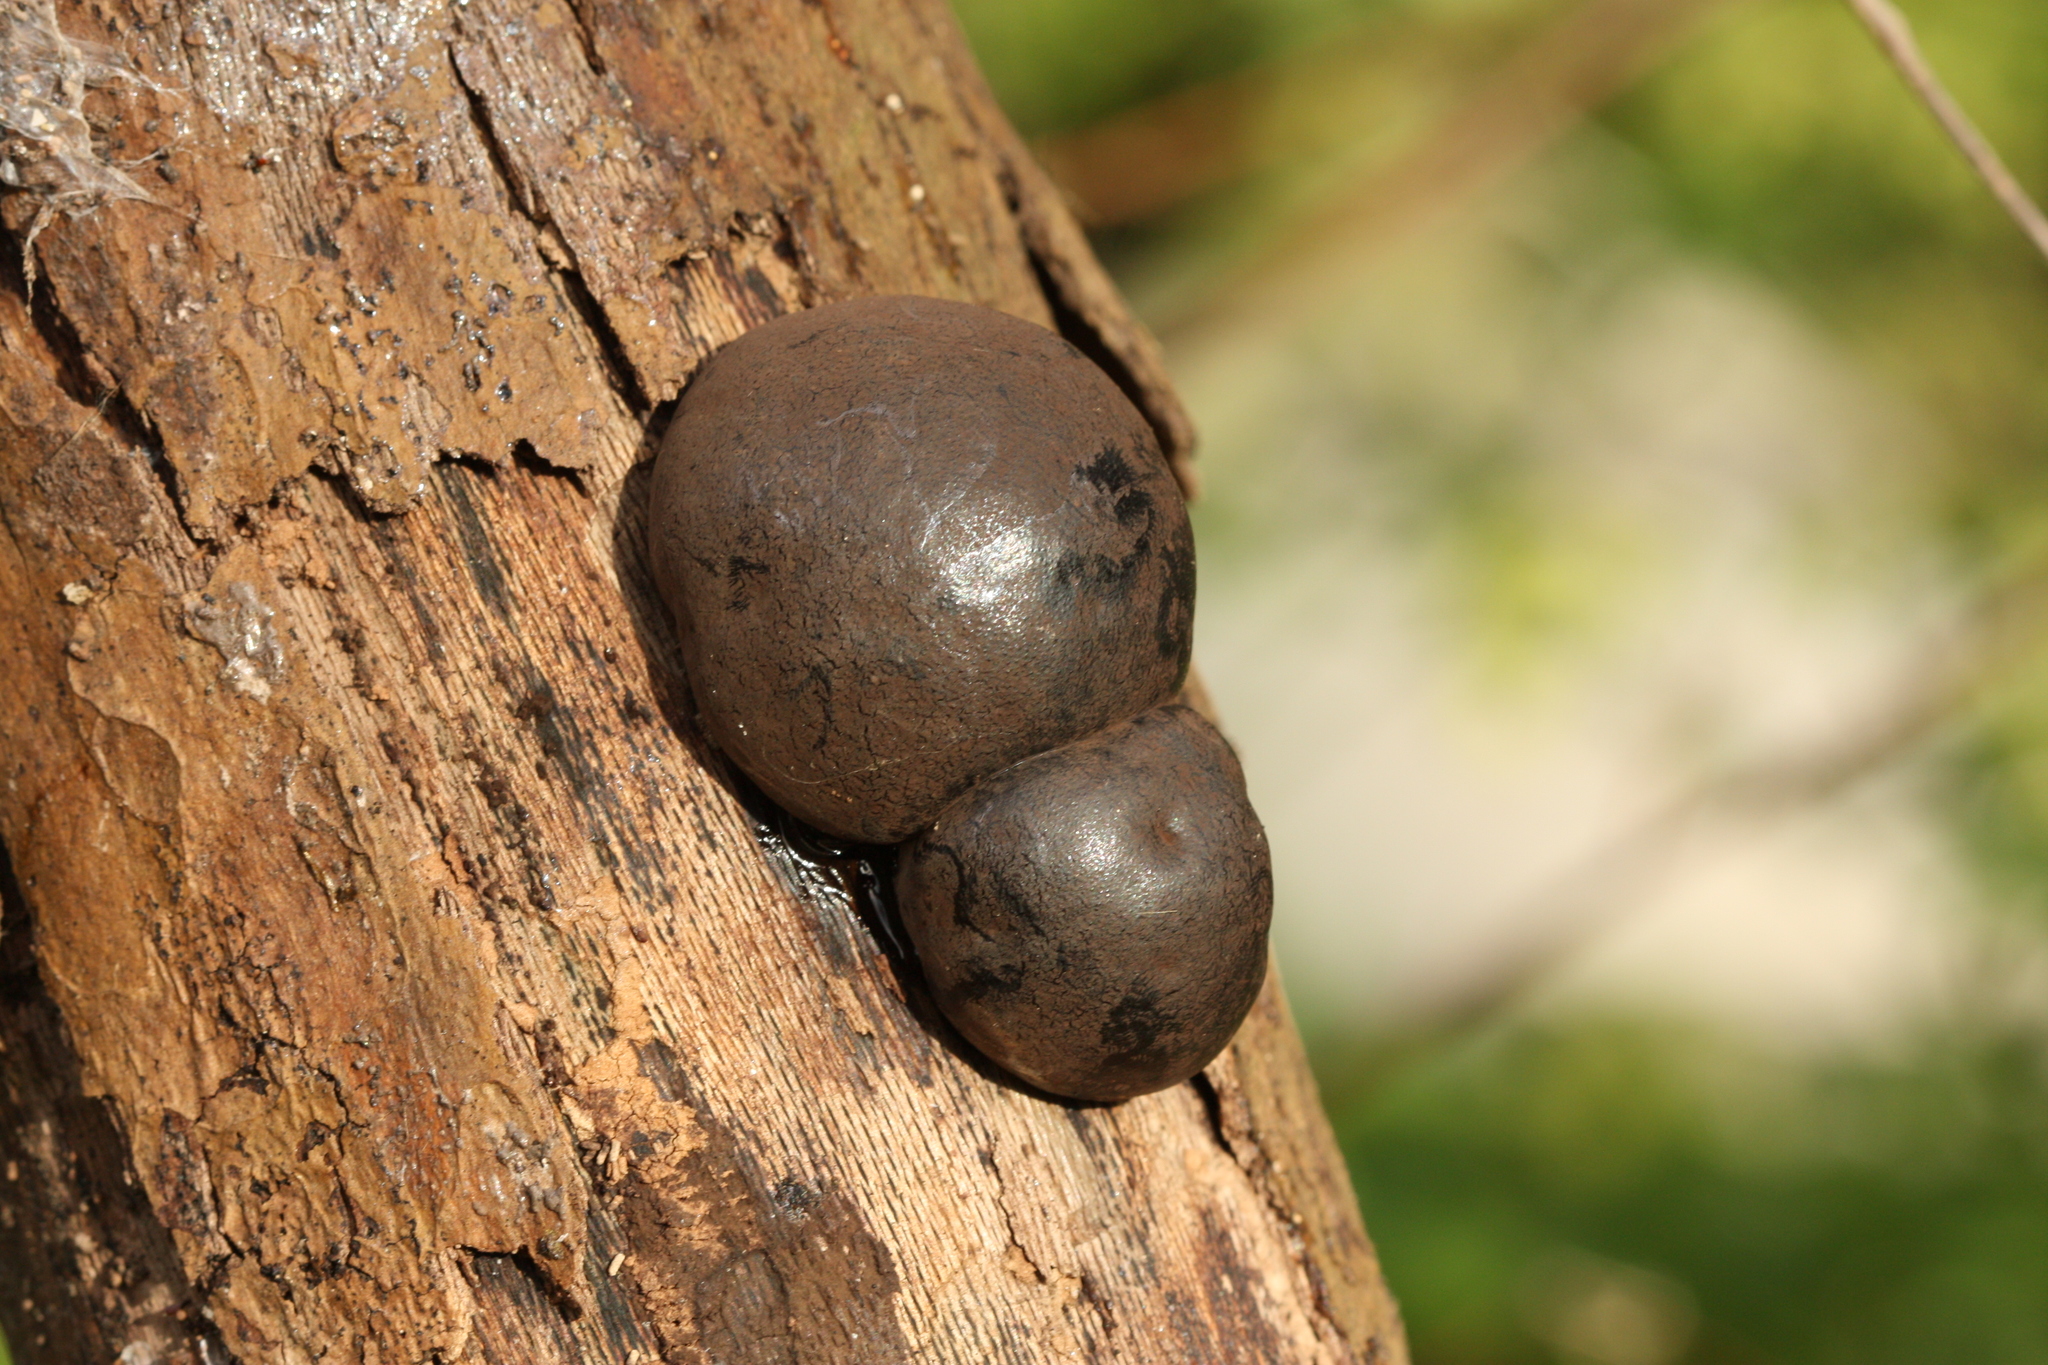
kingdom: Fungi
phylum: Ascomycota
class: Sordariomycetes
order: Xylariales
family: Hypoxylaceae
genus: Daldinia
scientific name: Daldinia concentrica
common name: Cramp balls
